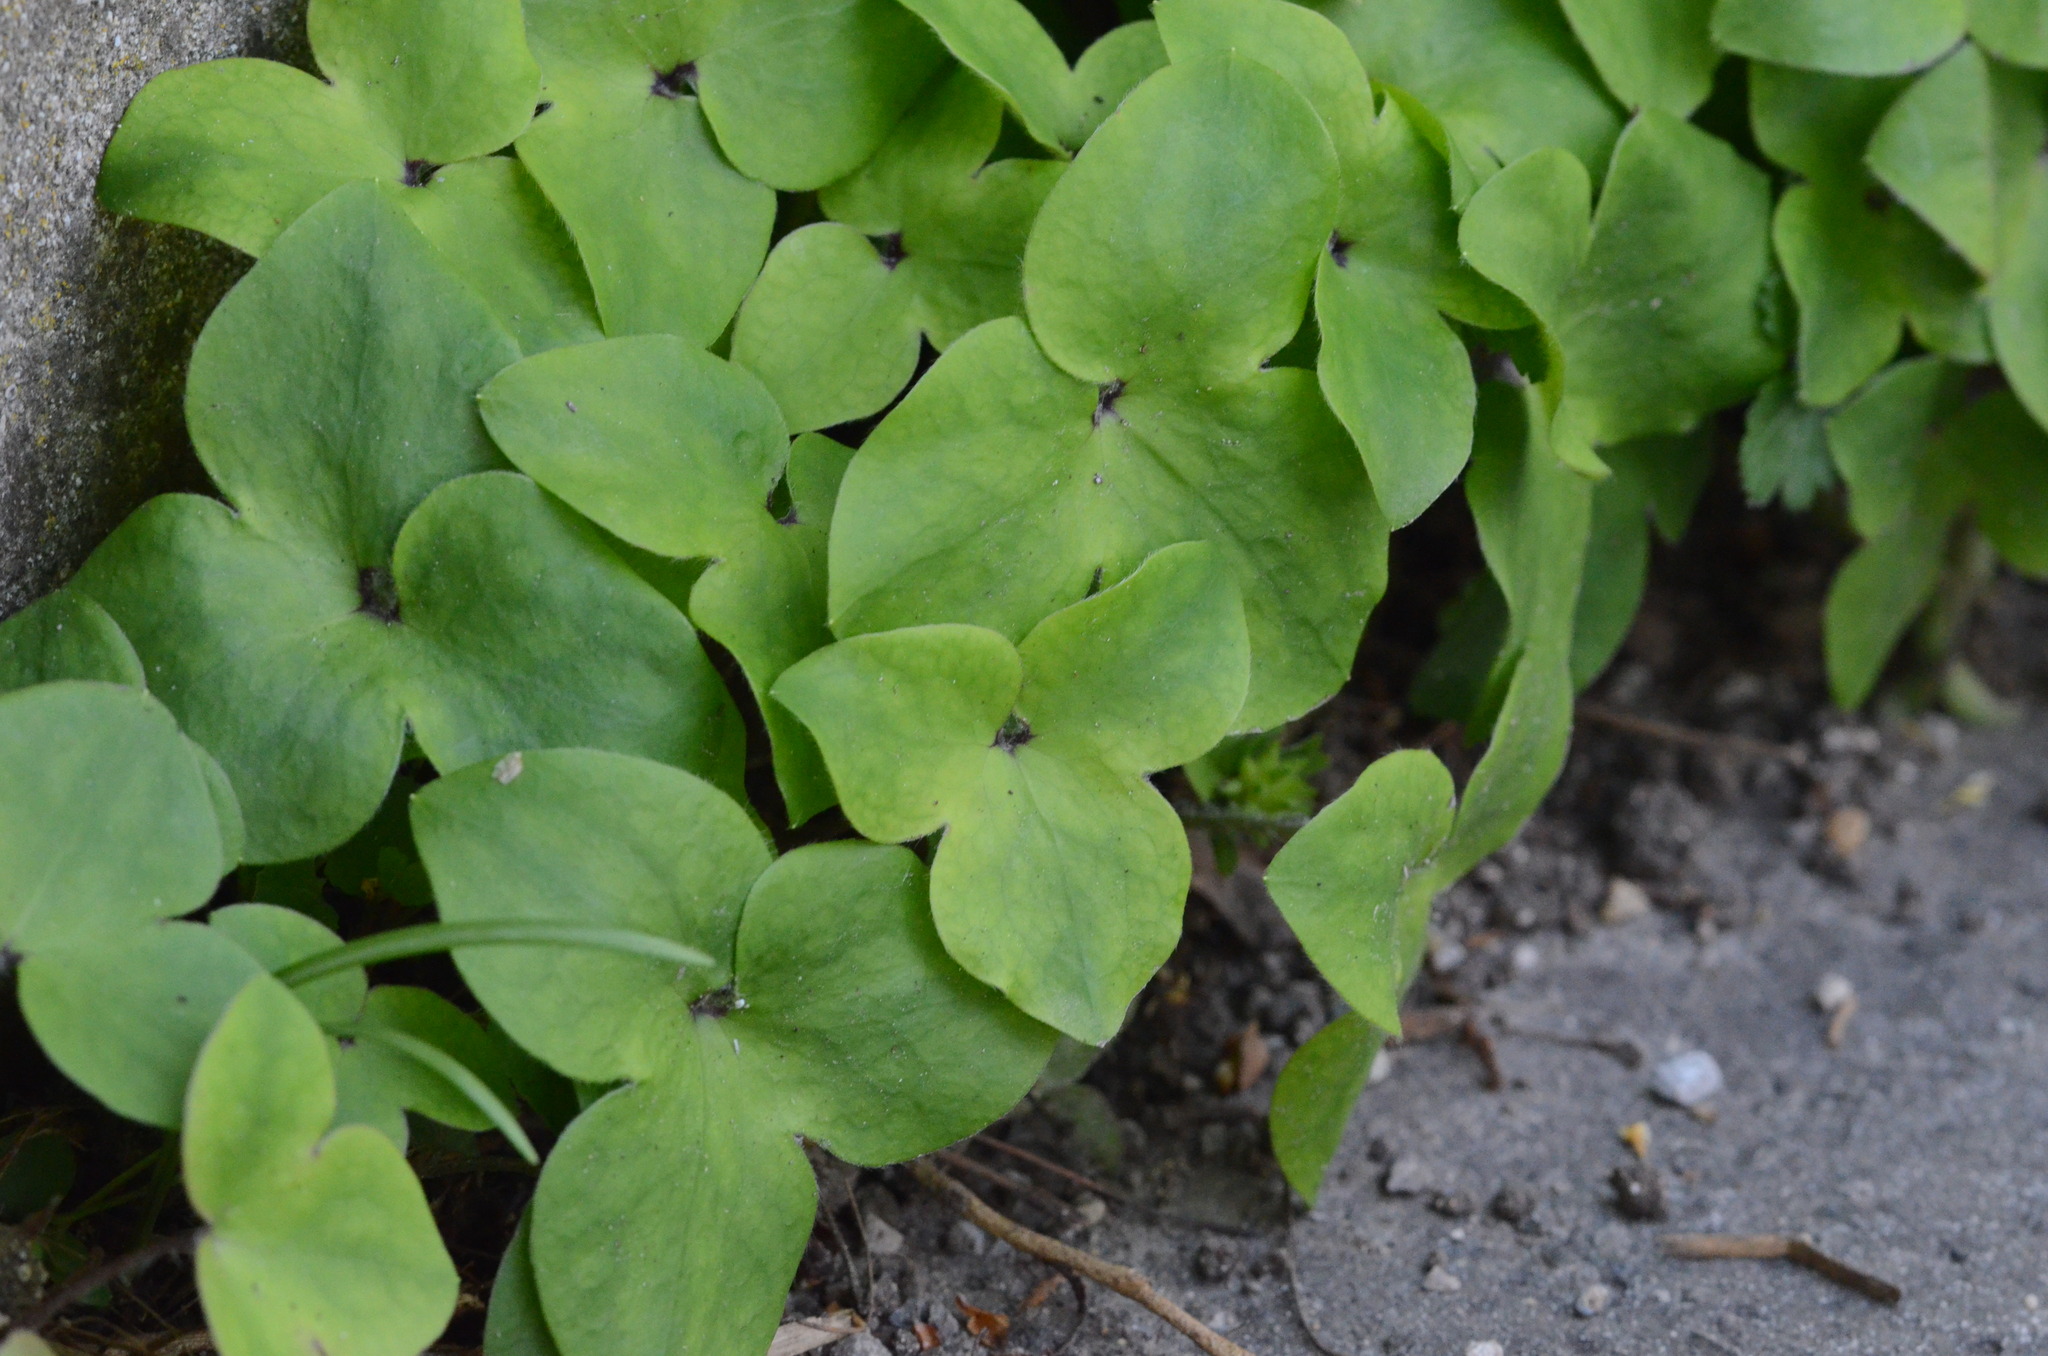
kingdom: Plantae
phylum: Tracheophyta
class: Magnoliopsida
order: Ranunculales
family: Ranunculaceae
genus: Hepatica
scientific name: Hepatica nobilis
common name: Liverleaf
